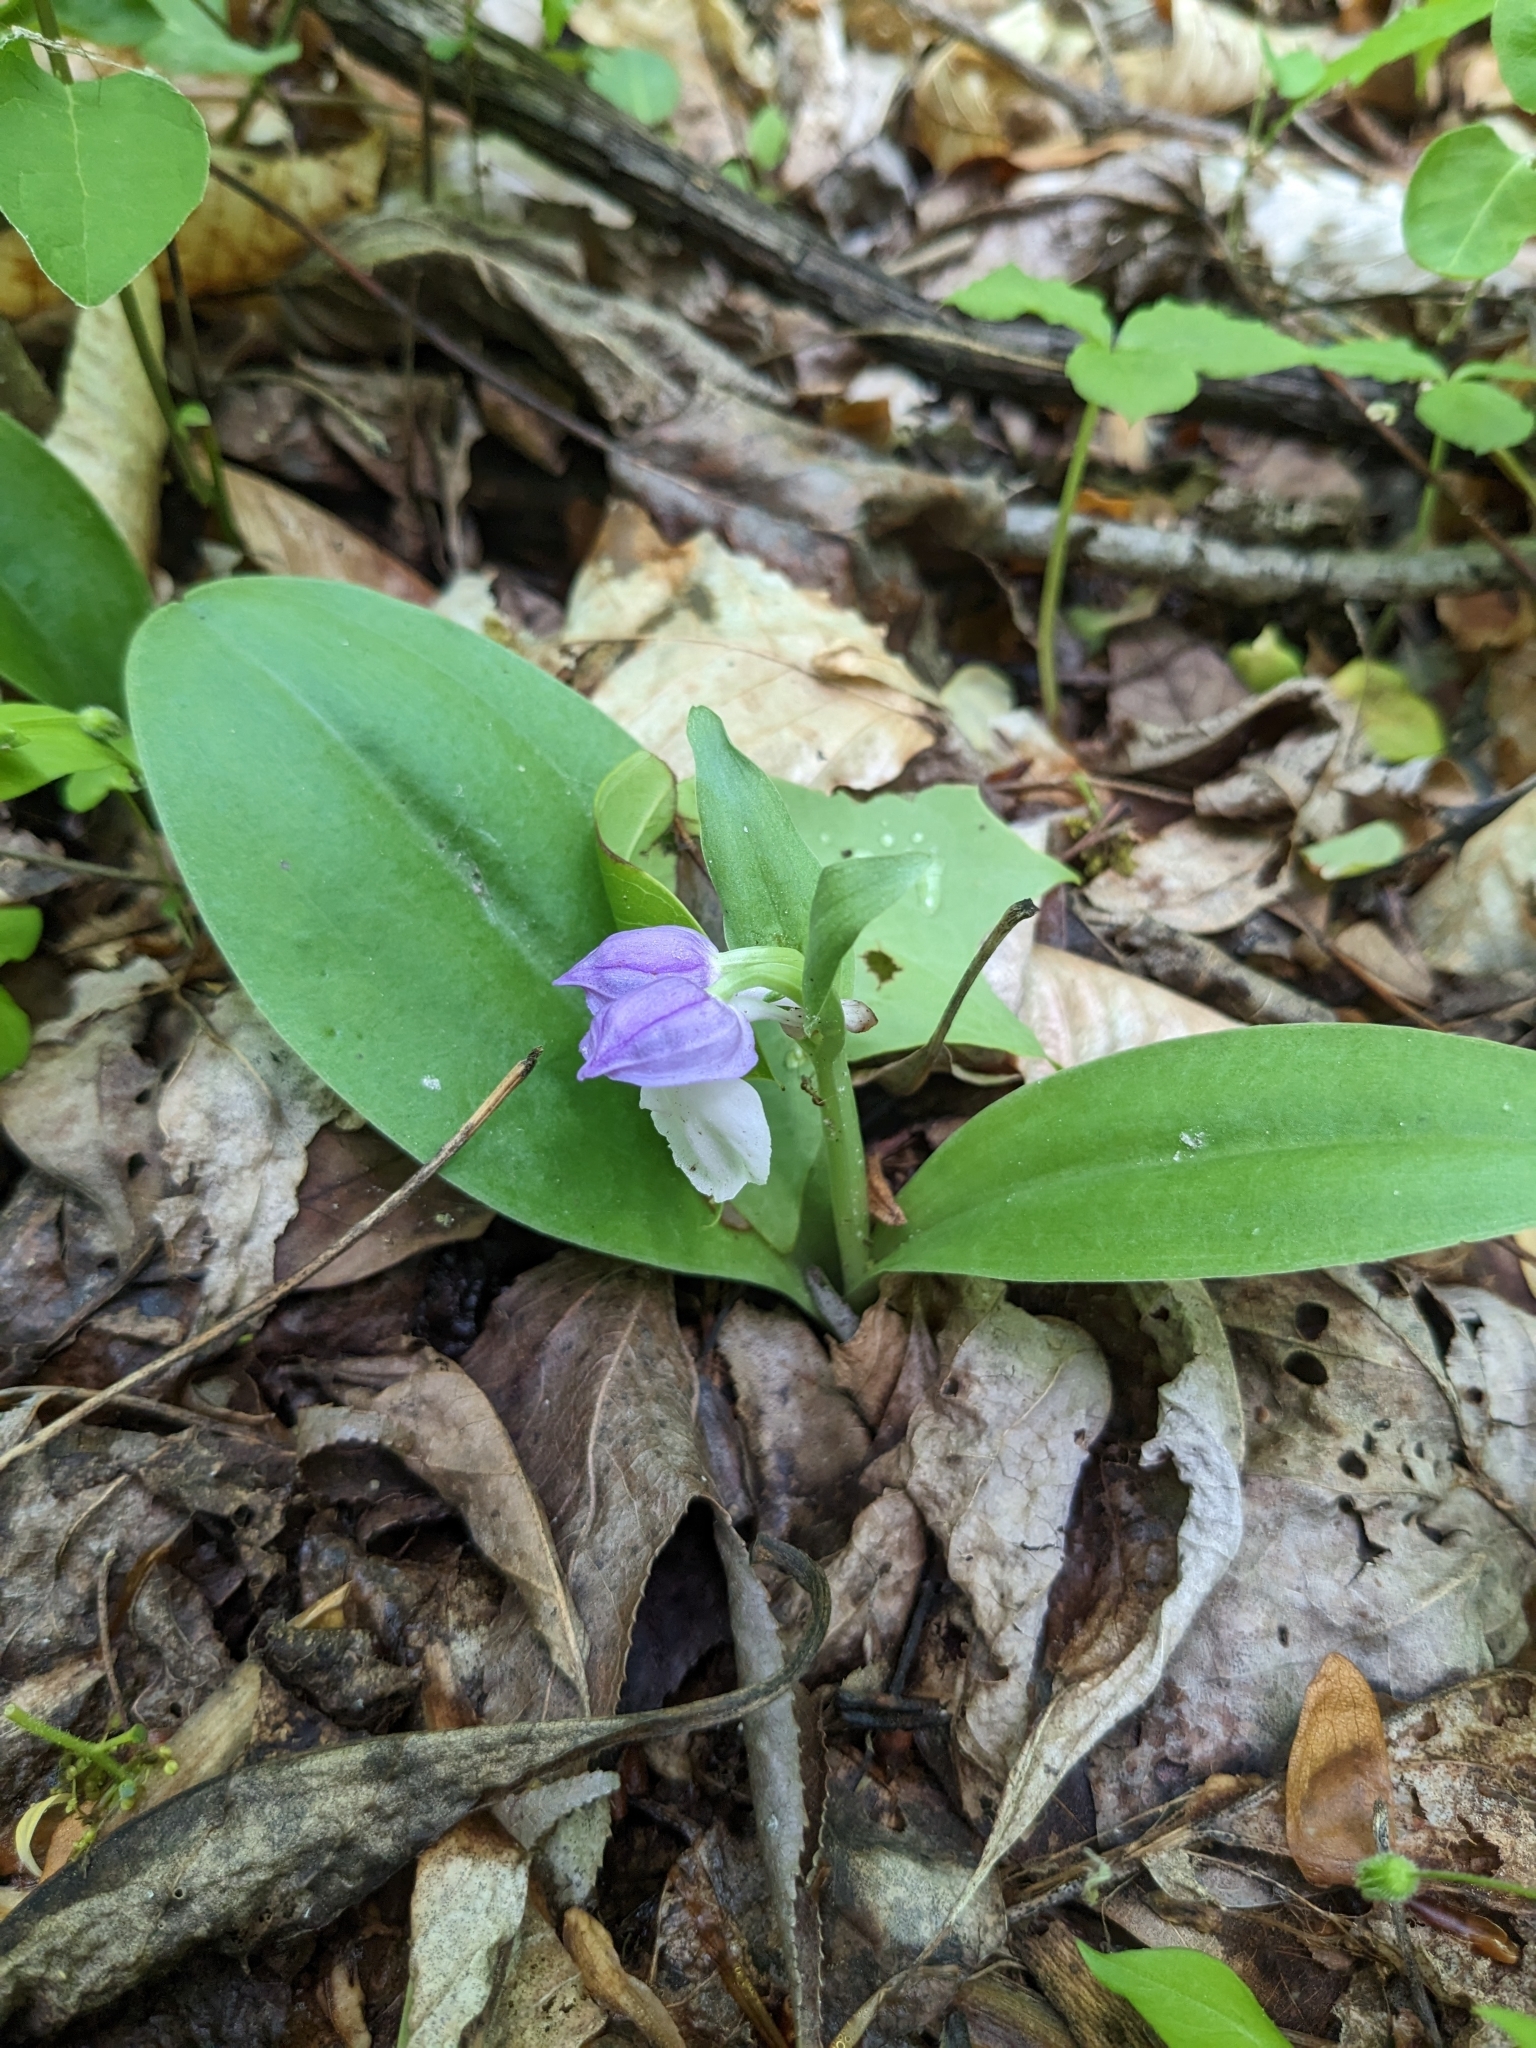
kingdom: Plantae
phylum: Tracheophyta
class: Liliopsida
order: Asparagales
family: Orchidaceae
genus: Galearis
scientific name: Galearis spectabilis
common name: Purple-hooded orchis
